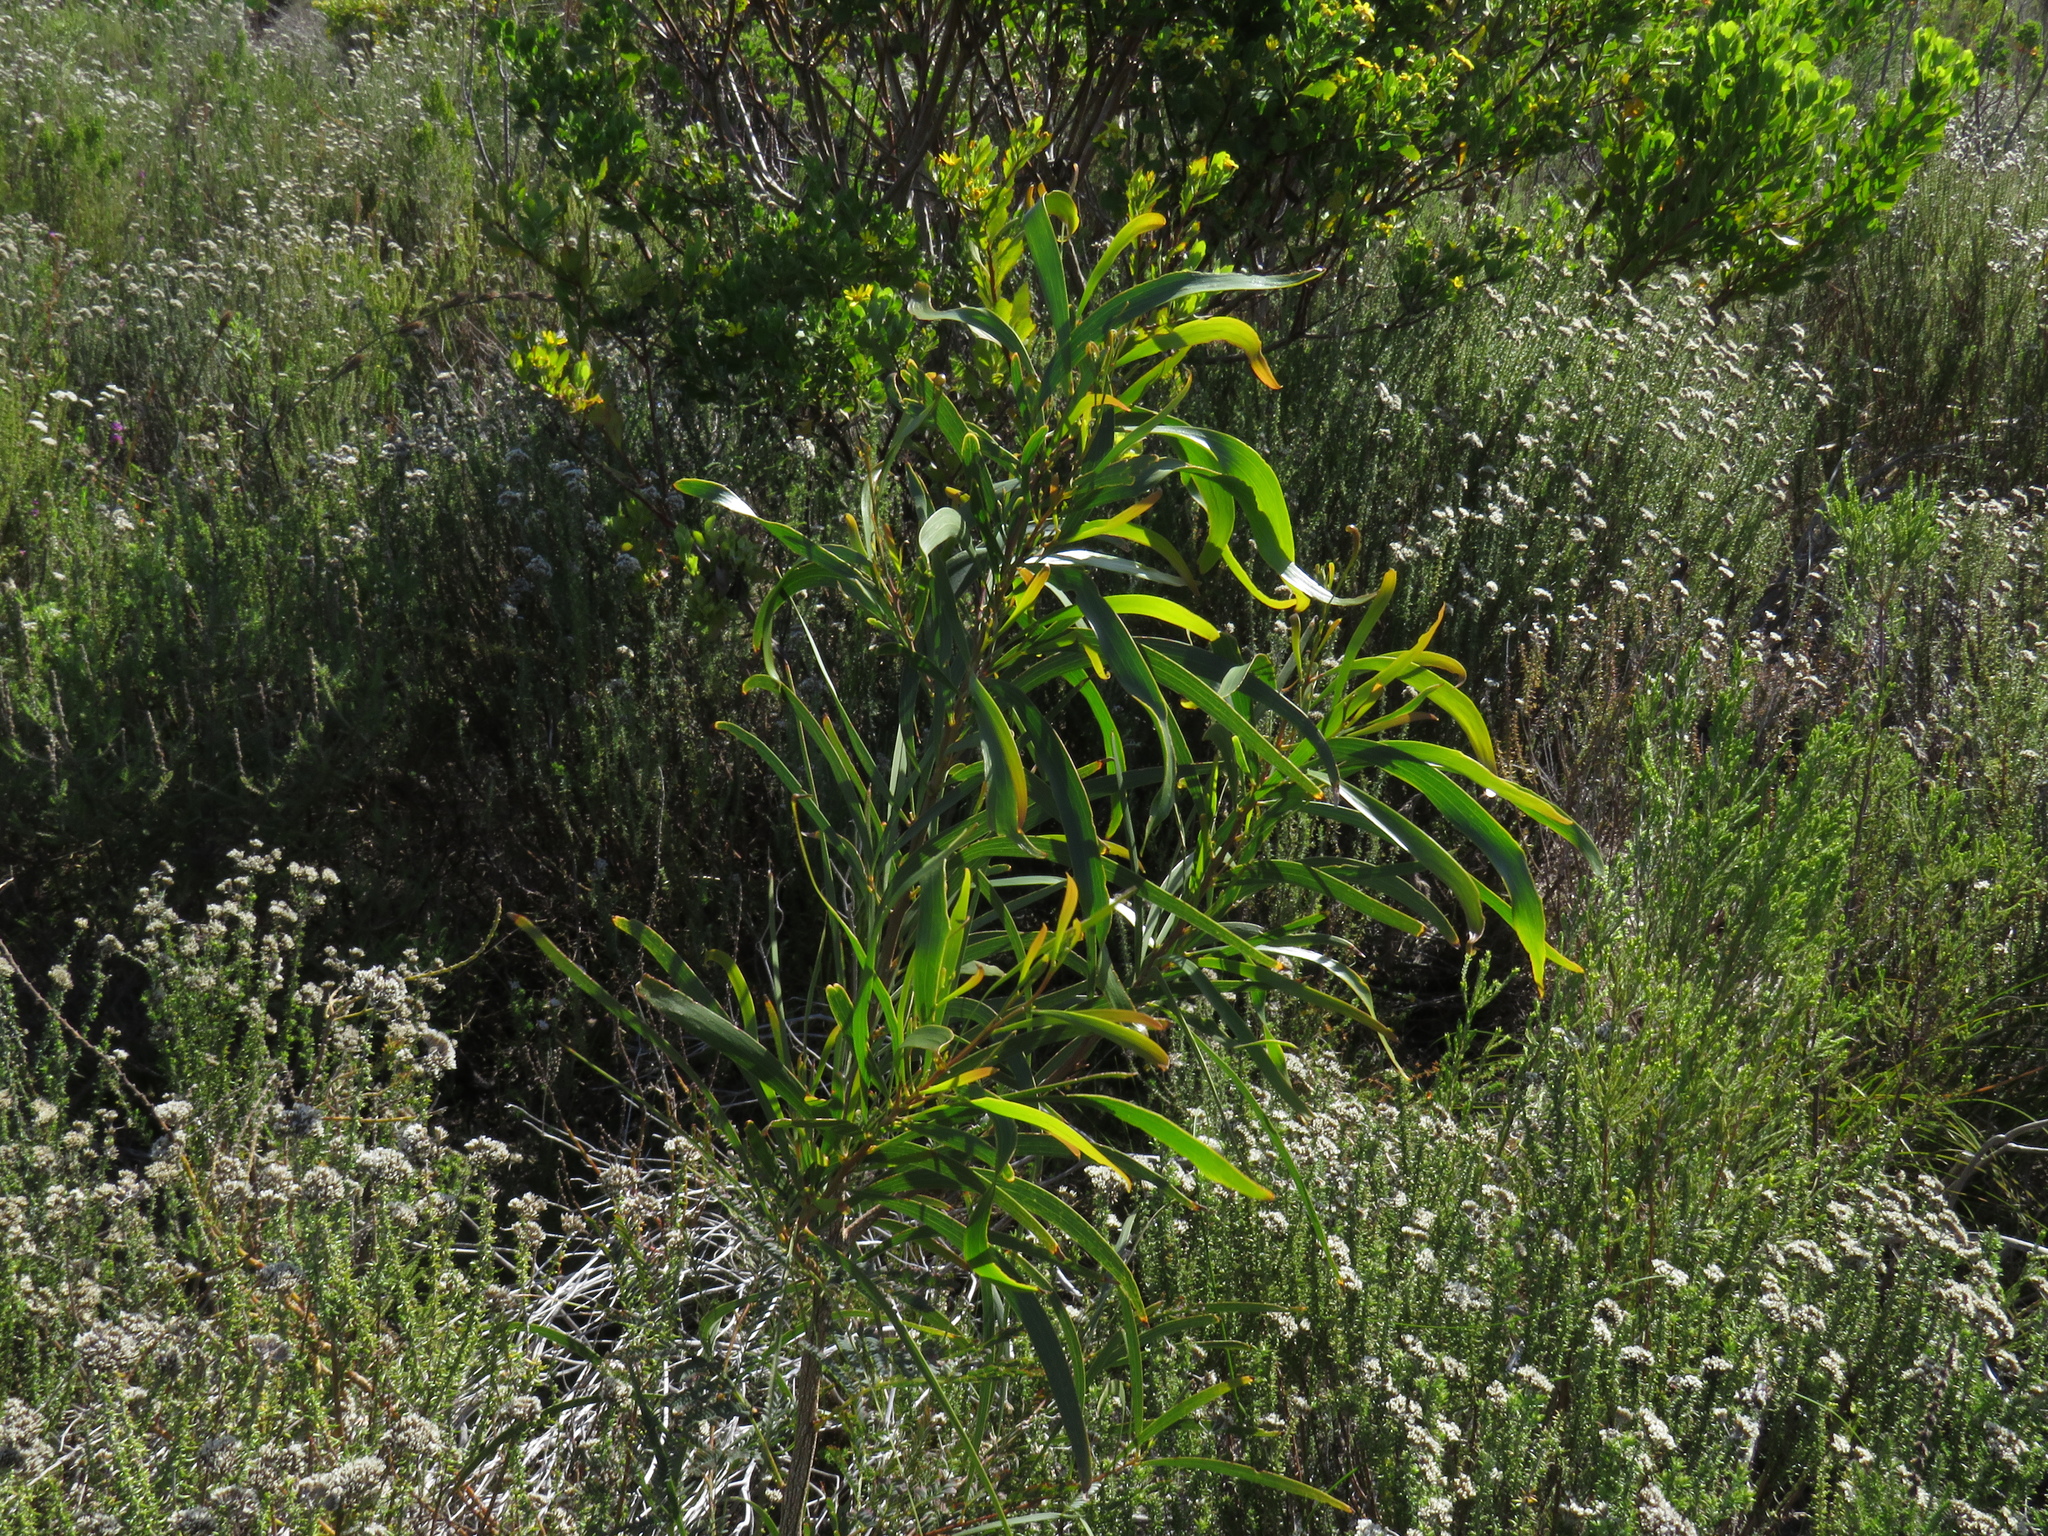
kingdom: Plantae
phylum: Tracheophyta
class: Magnoliopsida
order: Fabales
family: Fabaceae
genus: Acacia
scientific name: Acacia implexa
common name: Black wattle
